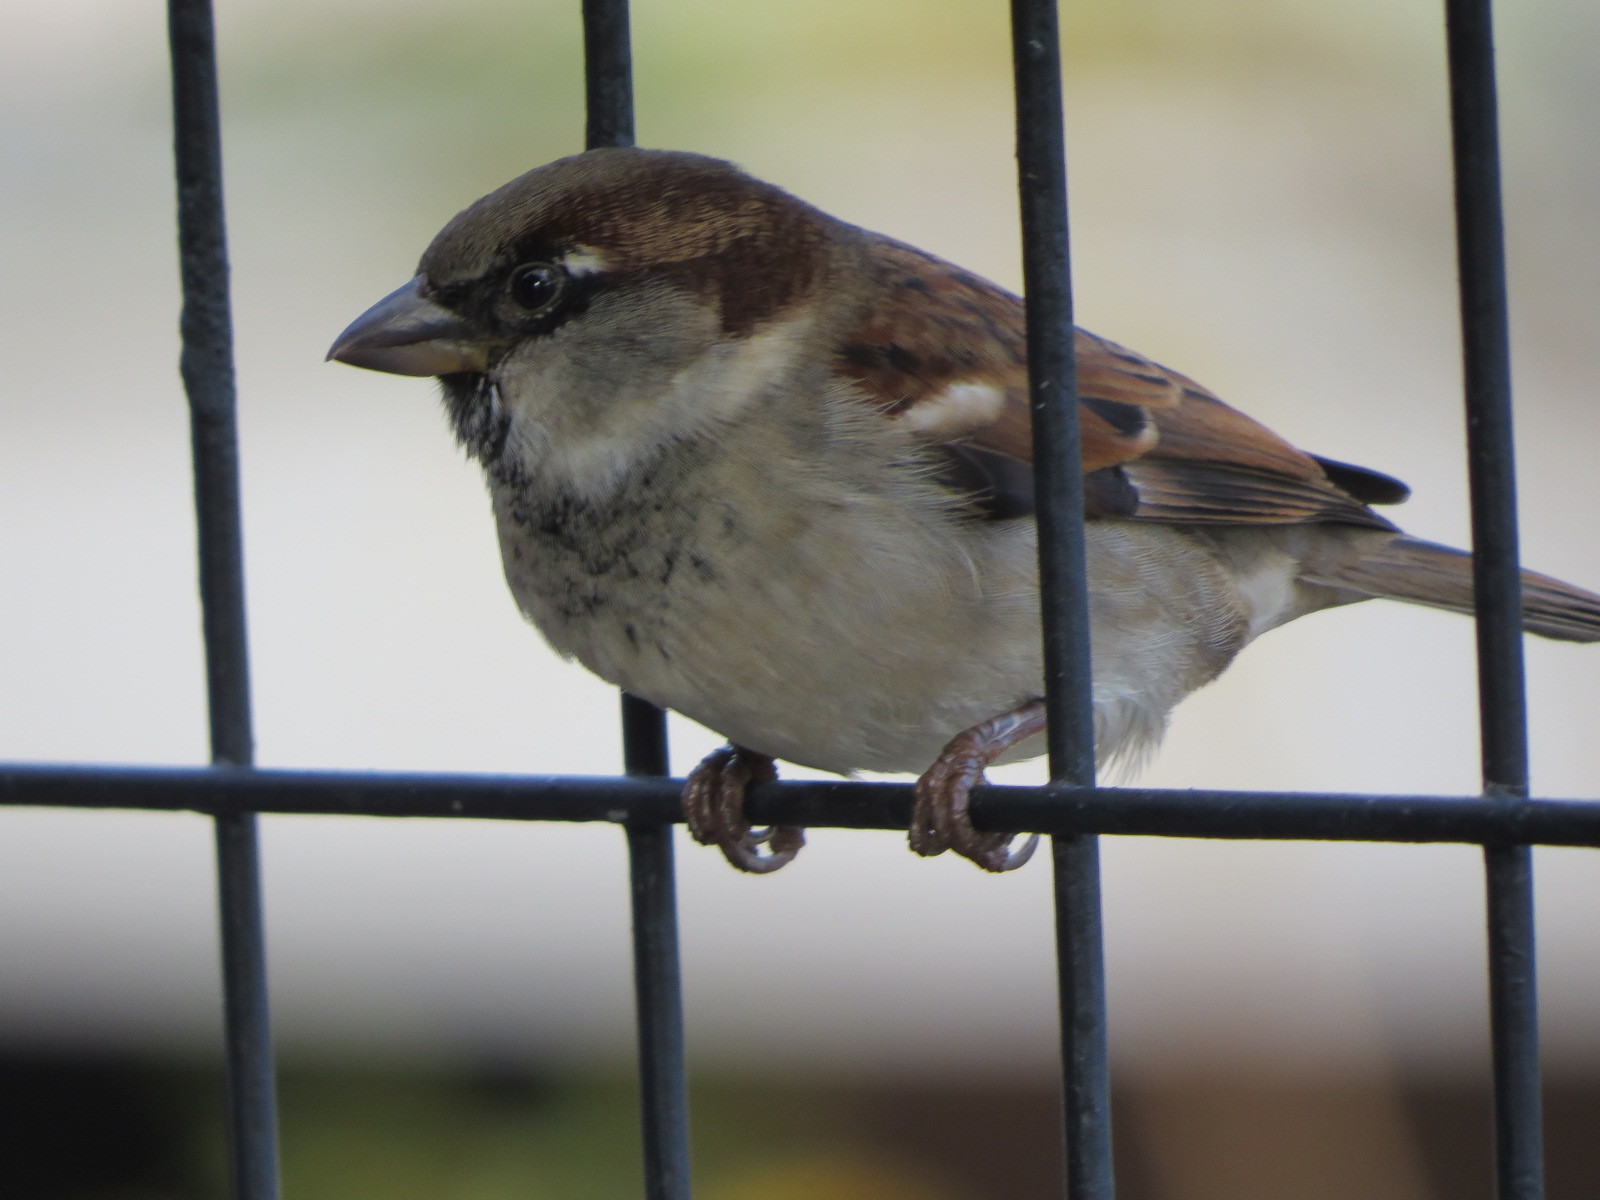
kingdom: Animalia
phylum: Chordata
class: Aves
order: Passeriformes
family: Passeridae
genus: Passer
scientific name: Passer domesticus
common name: House sparrow
